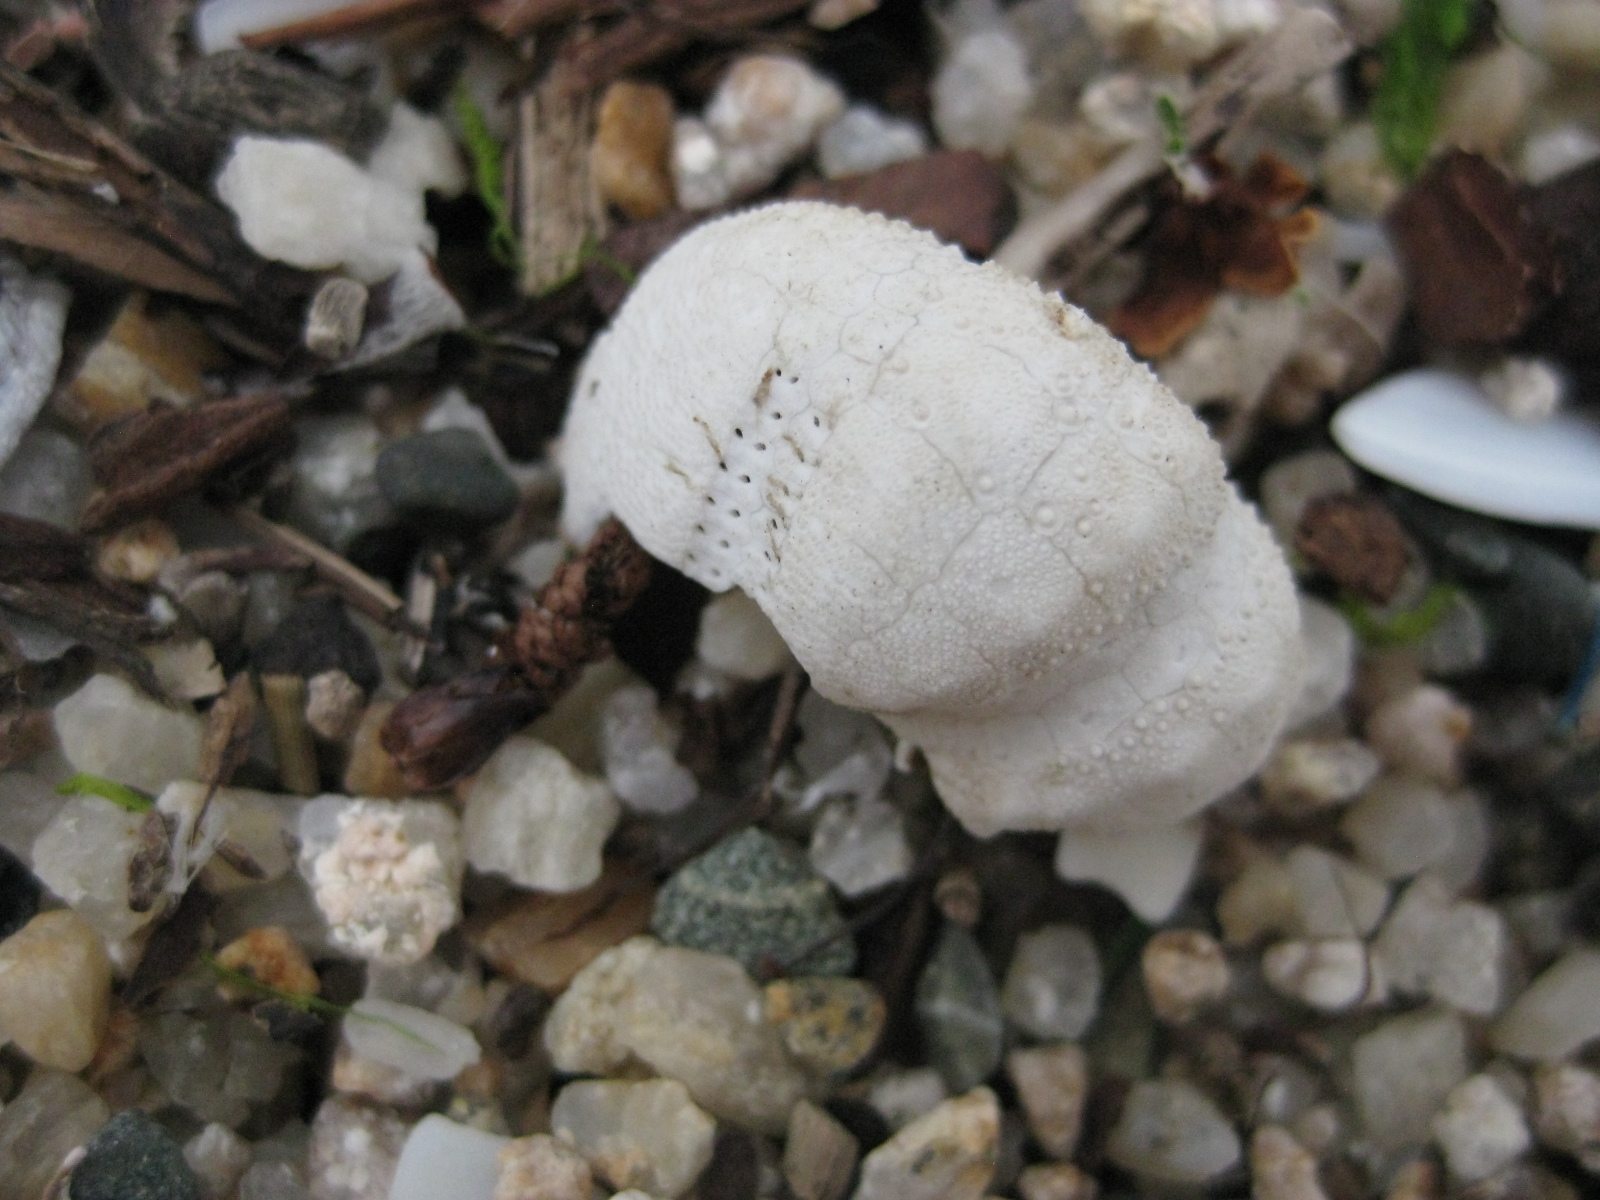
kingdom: Animalia
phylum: Echinodermata
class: Echinoidea
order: Spatangoida
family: Loveniidae
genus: Echinocardium
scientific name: Echinocardium cordatum
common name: Heart-urchin
